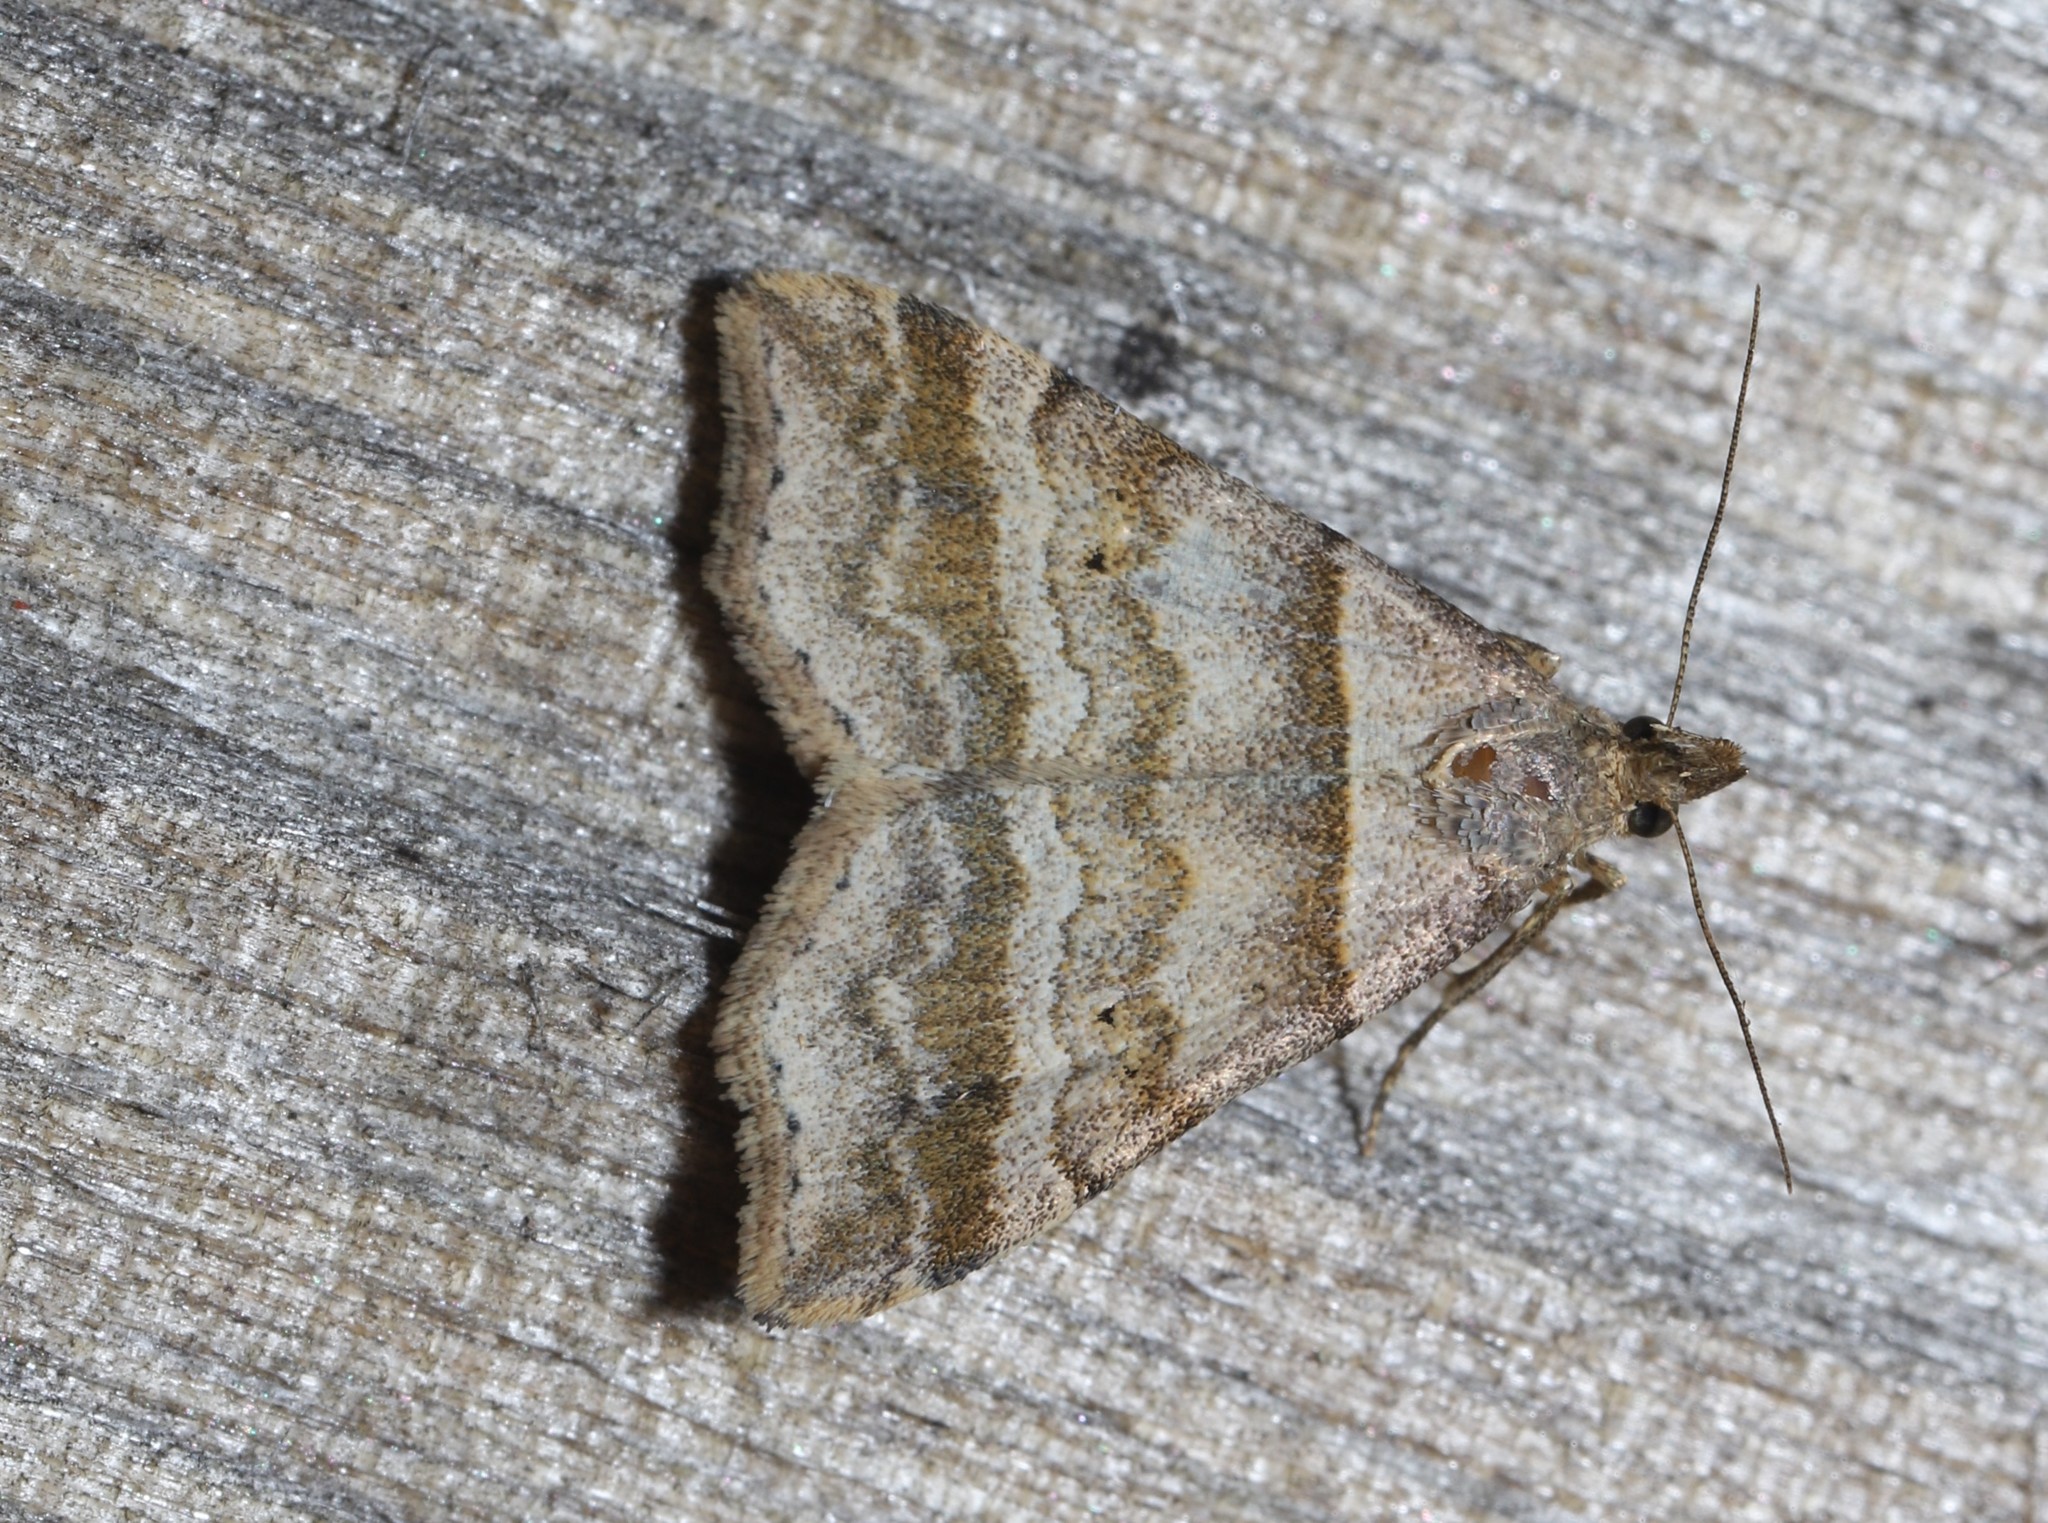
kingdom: Animalia
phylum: Arthropoda
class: Insecta
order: Lepidoptera
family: Erebidae
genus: Phaeolita
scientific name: Phaeolita pyramusalis
